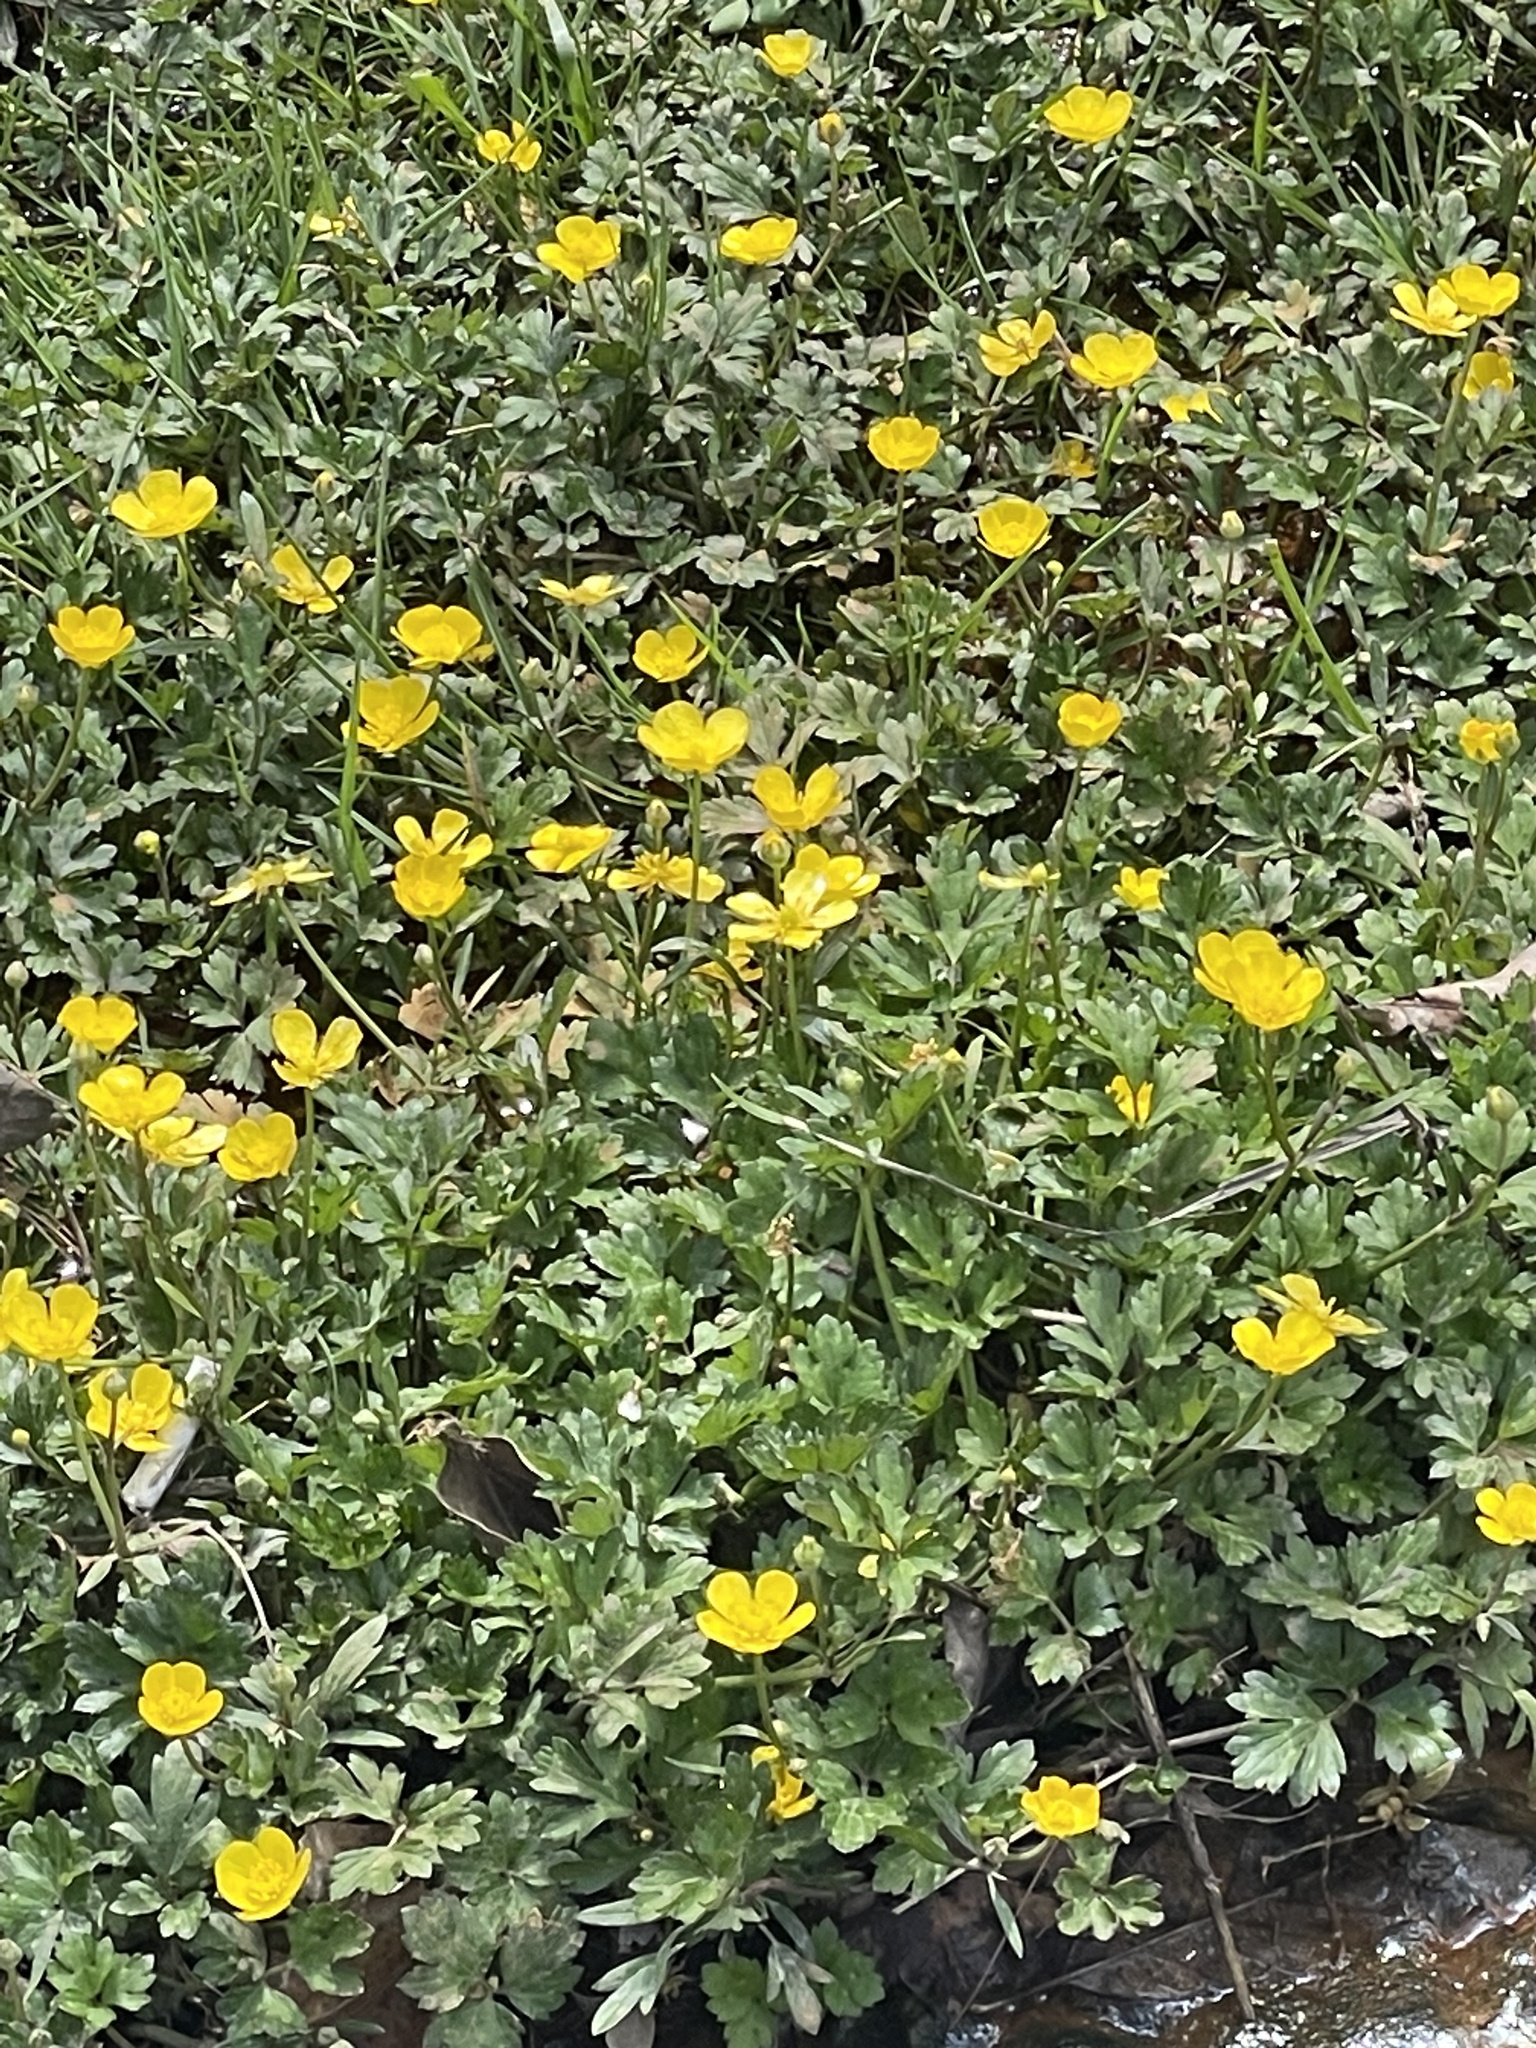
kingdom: Plantae
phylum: Tracheophyta
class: Magnoliopsida
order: Ranunculales
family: Ranunculaceae
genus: Ranunculus
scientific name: Ranunculus repens
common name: Creeping buttercup
